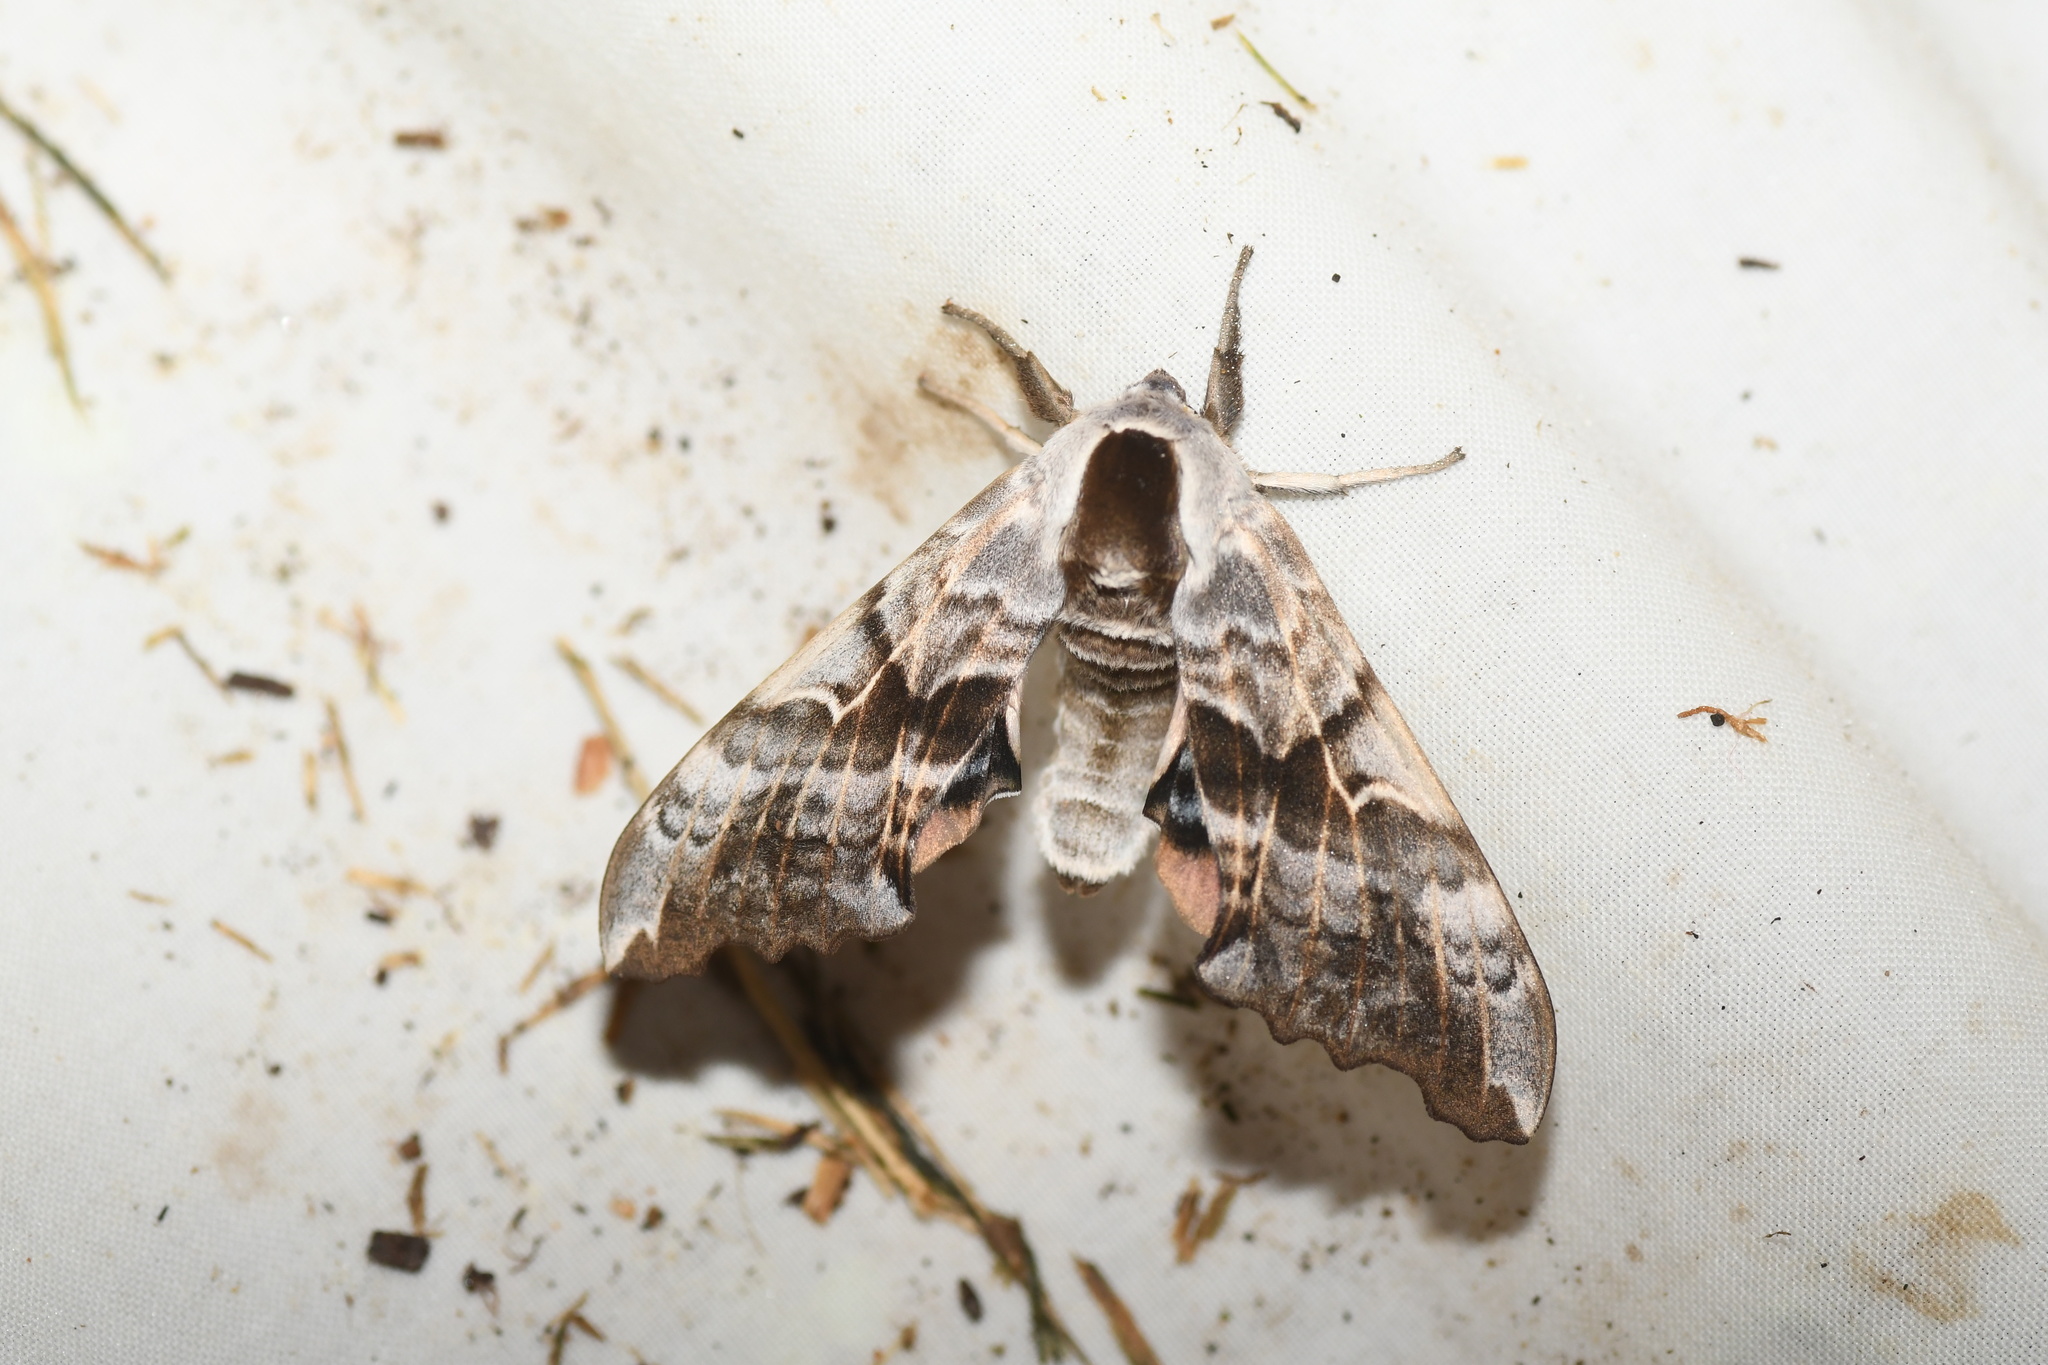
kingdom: Animalia
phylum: Arthropoda
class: Insecta
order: Lepidoptera
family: Sphingidae
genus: Smerinthus
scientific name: Smerinthus cerisyi
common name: Cerisy's sphinx moth
